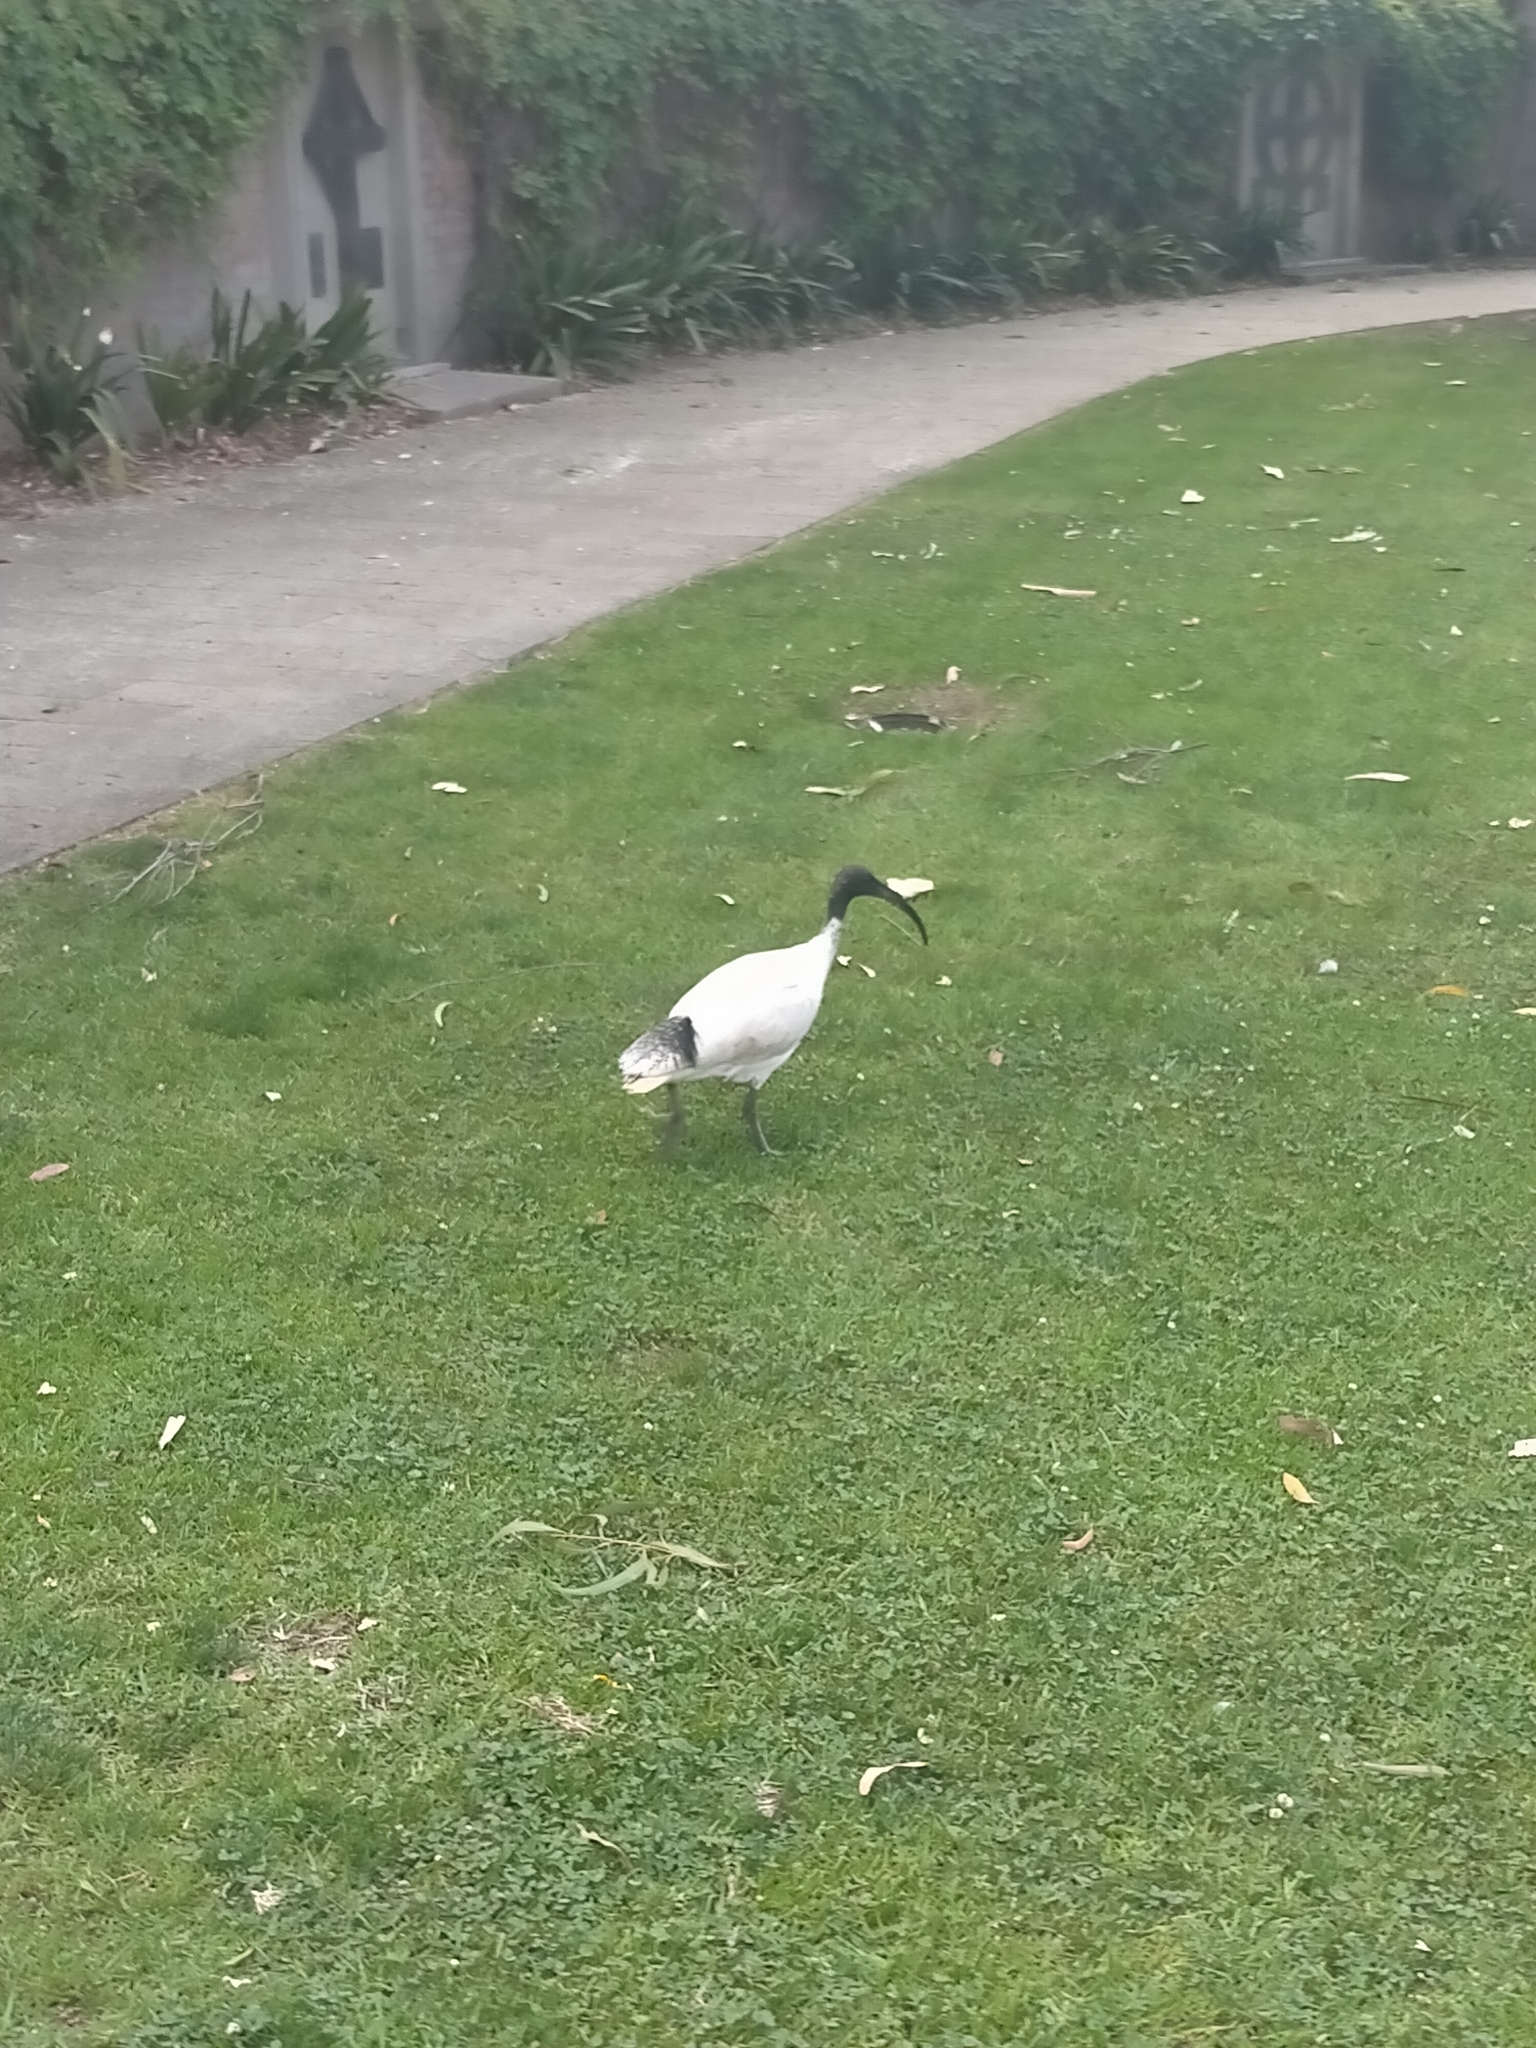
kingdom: Animalia
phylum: Chordata
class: Aves
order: Pelecaniformes
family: Threskiornithidae
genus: Threskiornis
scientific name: Threskiornis molucca
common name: Australian white ibis
